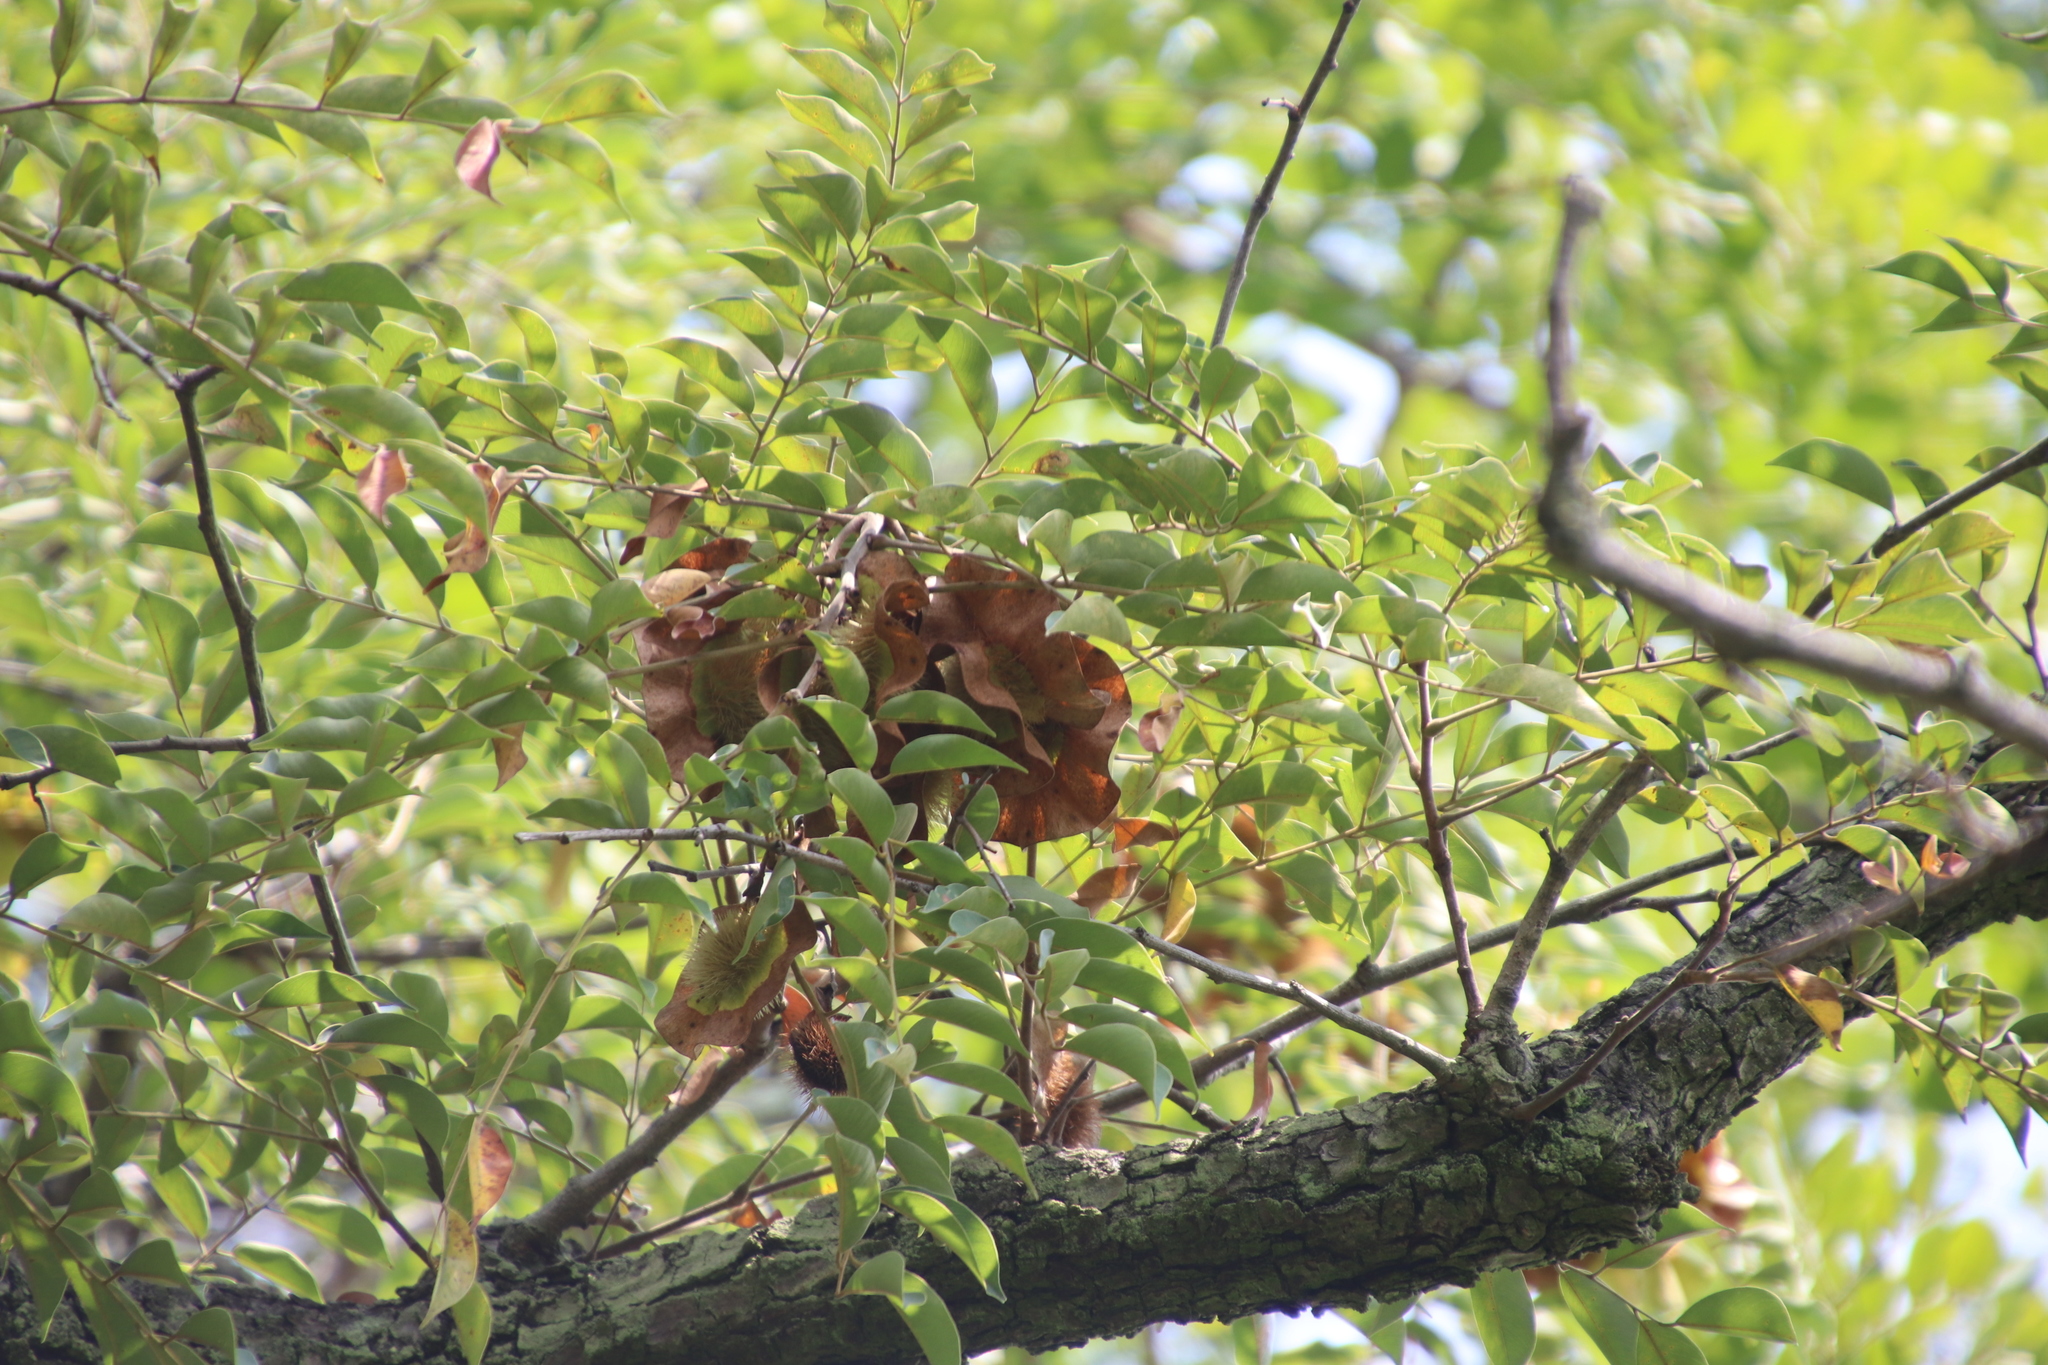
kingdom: Plantae
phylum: Tracheophyta
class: Magnoliopsida
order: Fabales
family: Fabaceae
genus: Pterocarpus
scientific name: Pterocarpus angolensis
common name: Bloodwood tree
